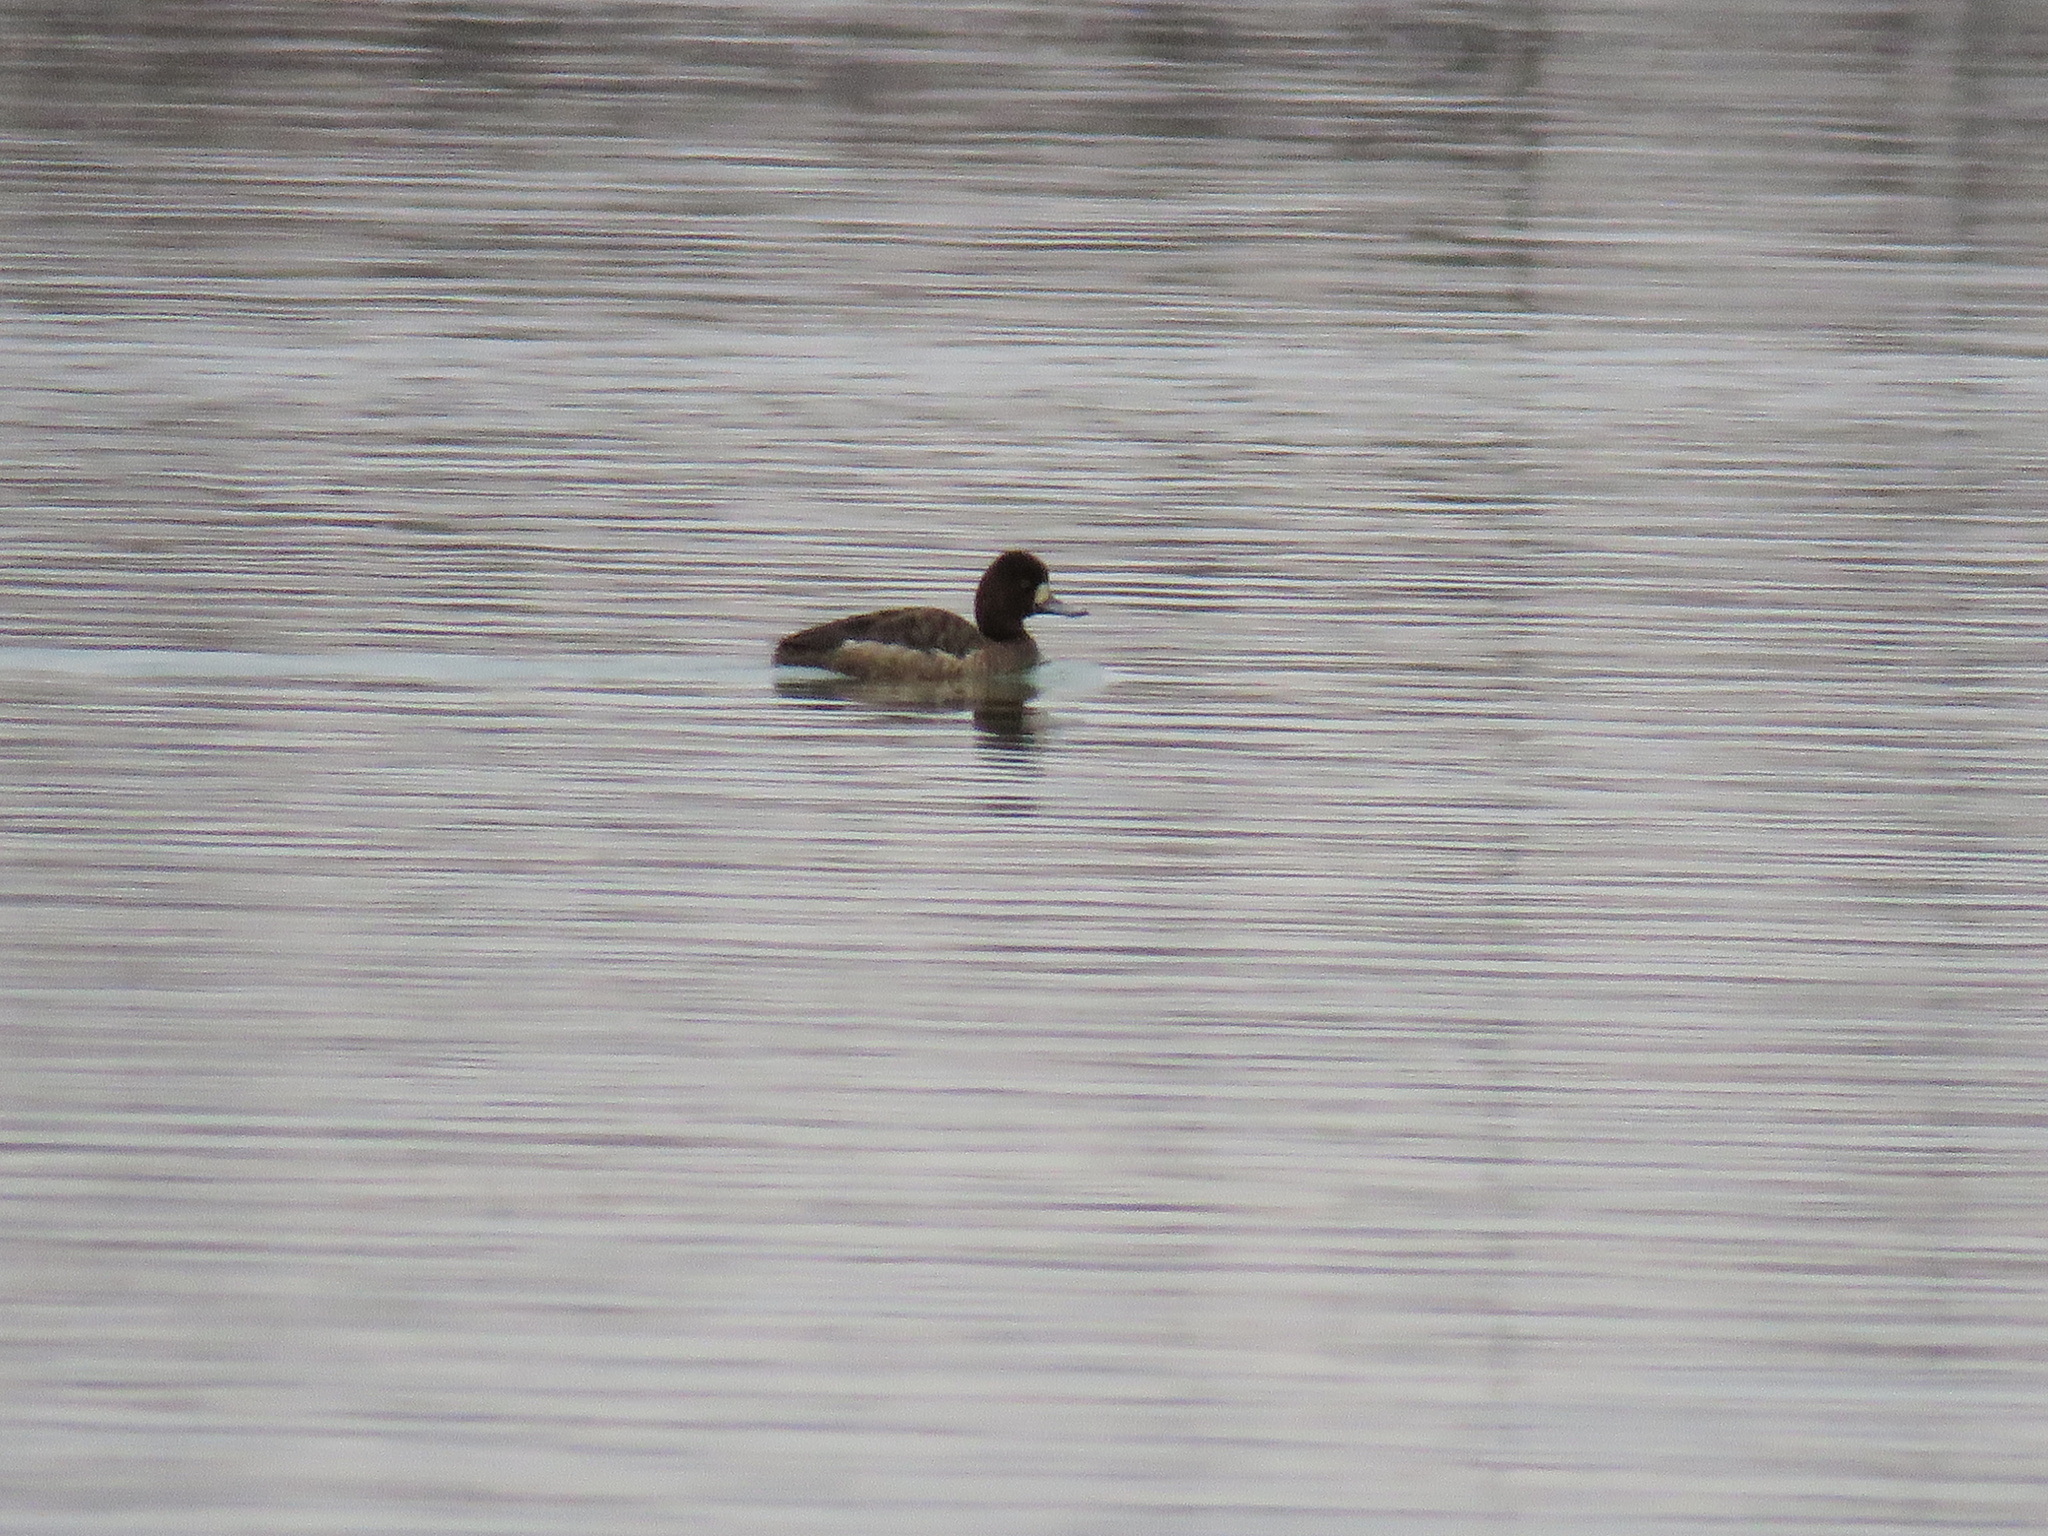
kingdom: Animalia
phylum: Chordata
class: Aves
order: Anseriformes
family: Anatidae
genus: Aythya
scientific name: Aythya affinis
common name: Lesser scaup
